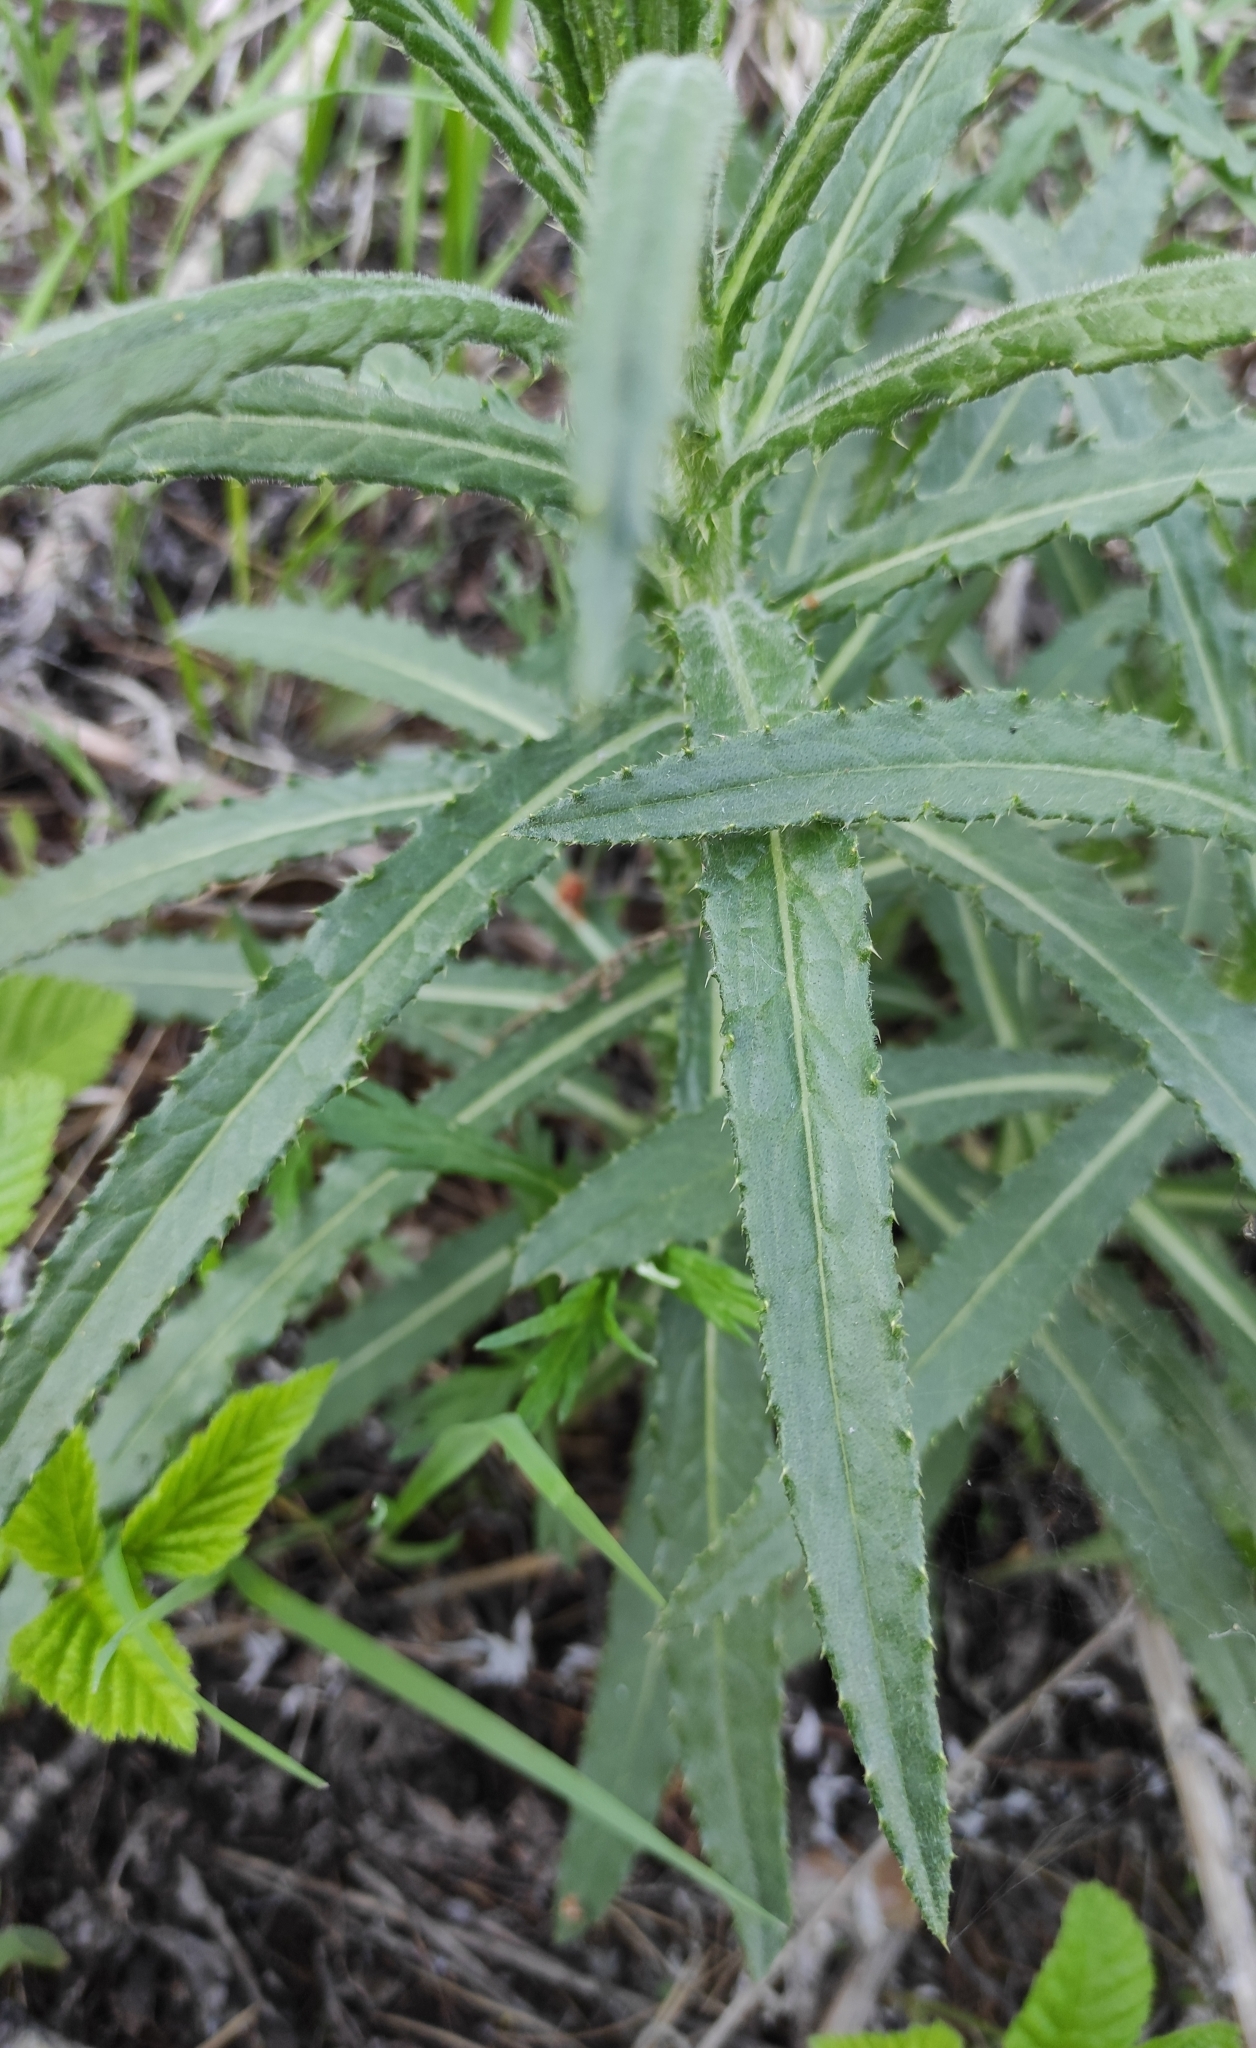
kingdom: Plantae
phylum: Tracheophyta
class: Magnoliopsida
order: Asterales
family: Asteraceae
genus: Cirsium
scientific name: Cirsium serratuloides
